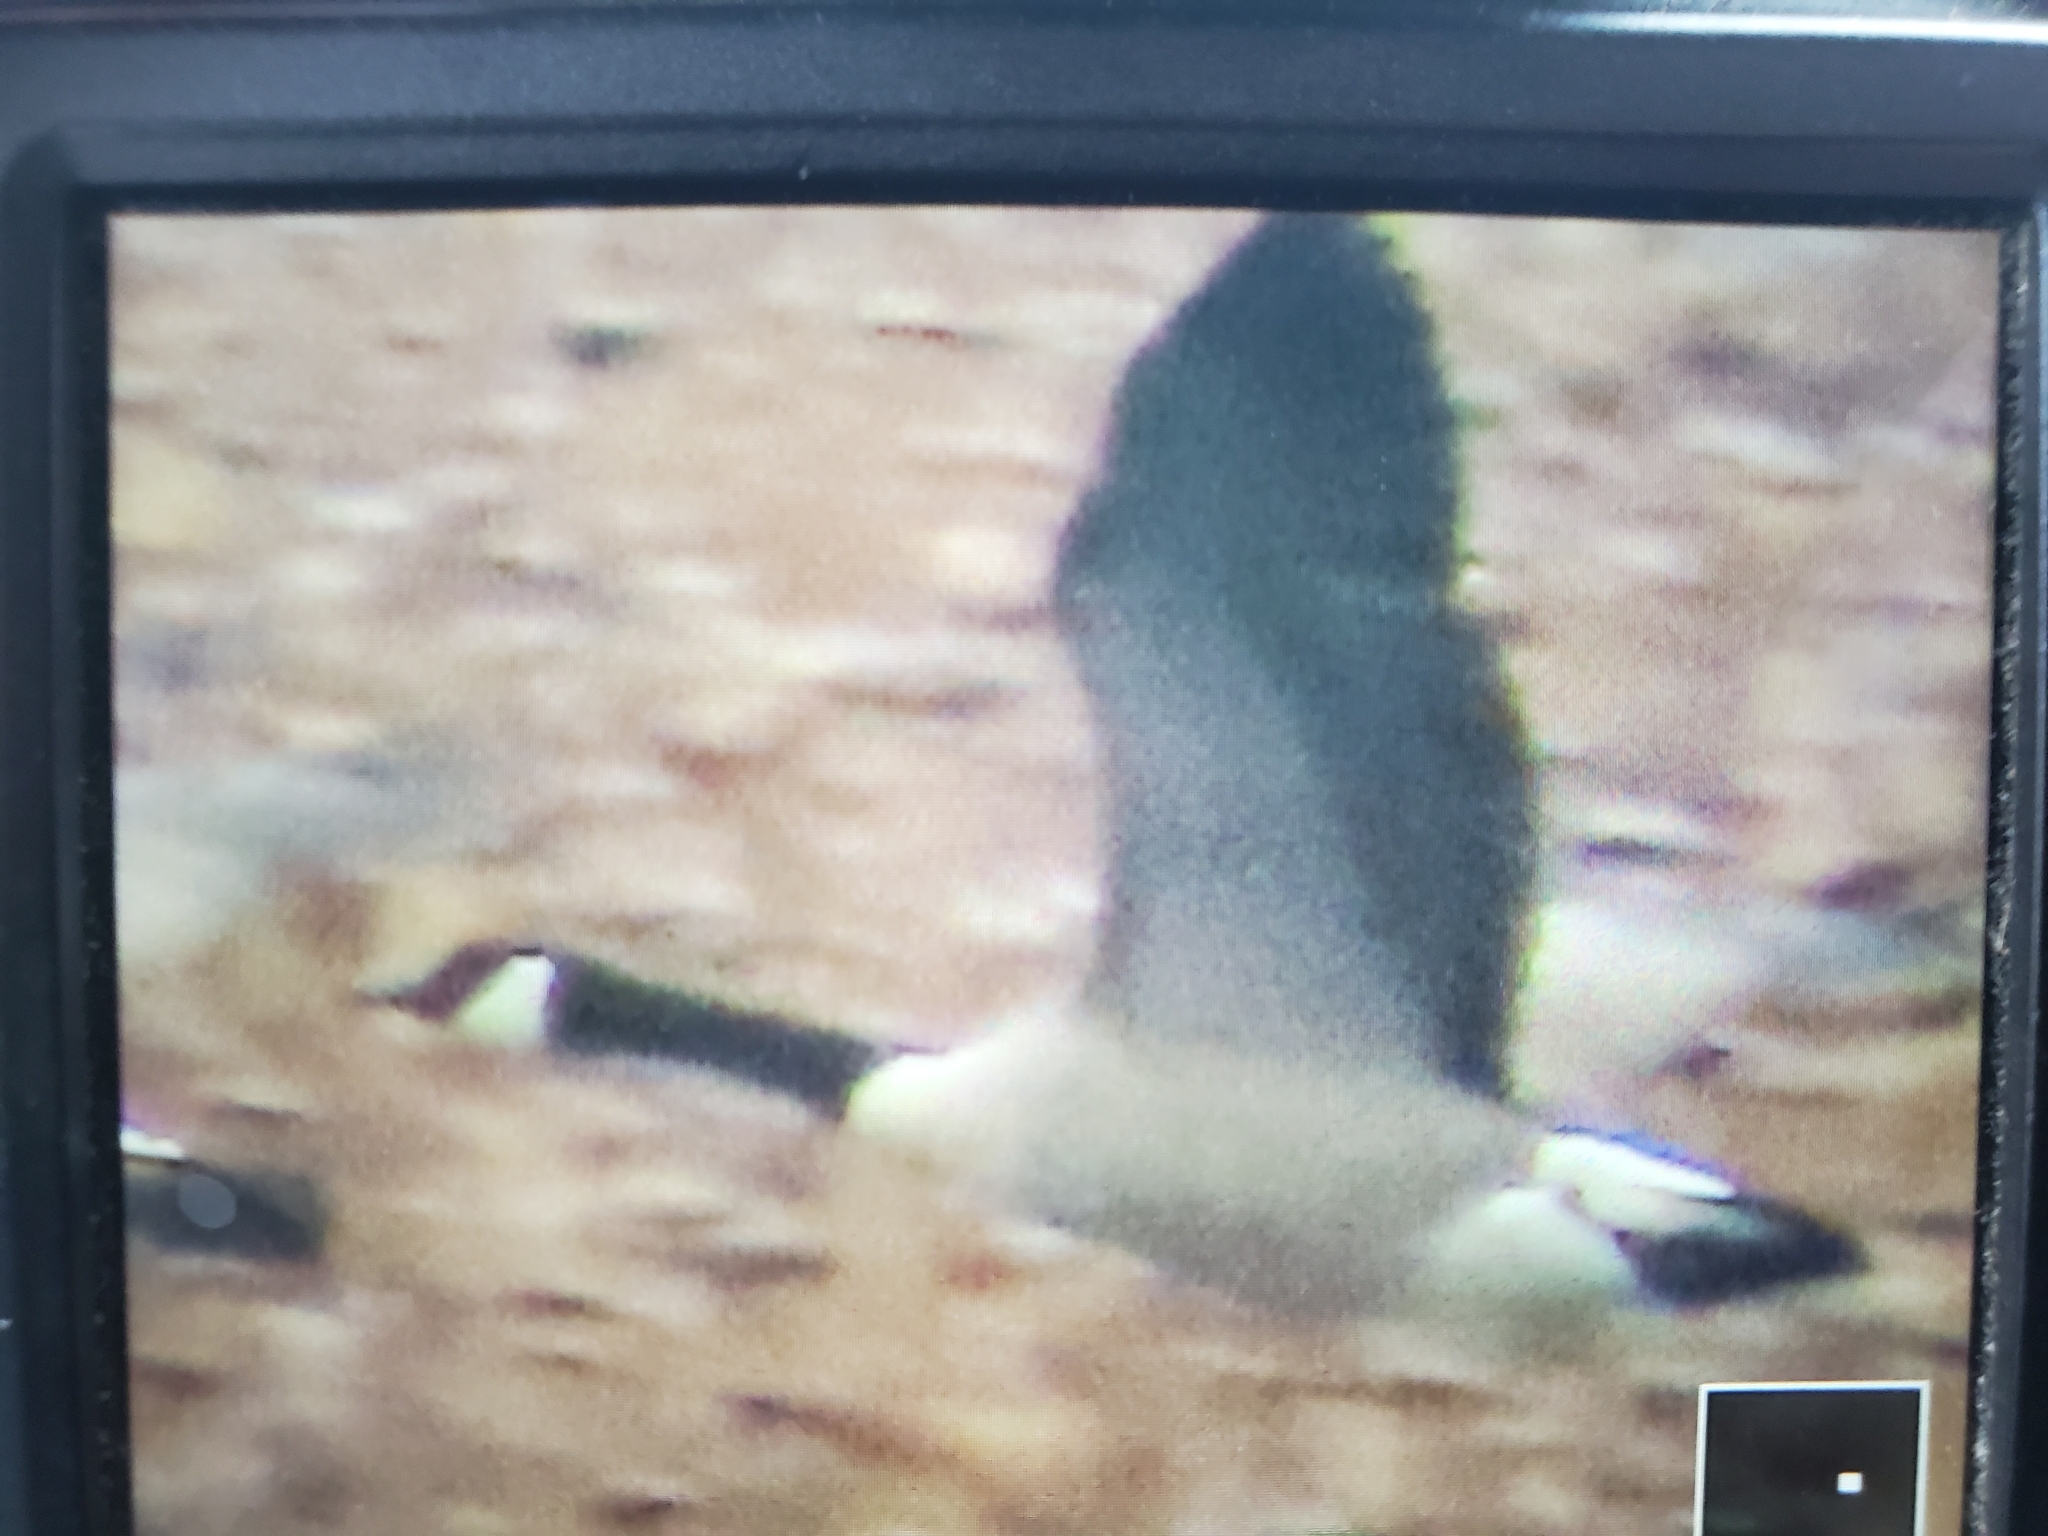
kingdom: Animalia
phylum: Chordata
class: Aves
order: Anseriformes
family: Anatidae
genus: Branta
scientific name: Branta canadensis
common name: Canada goose
